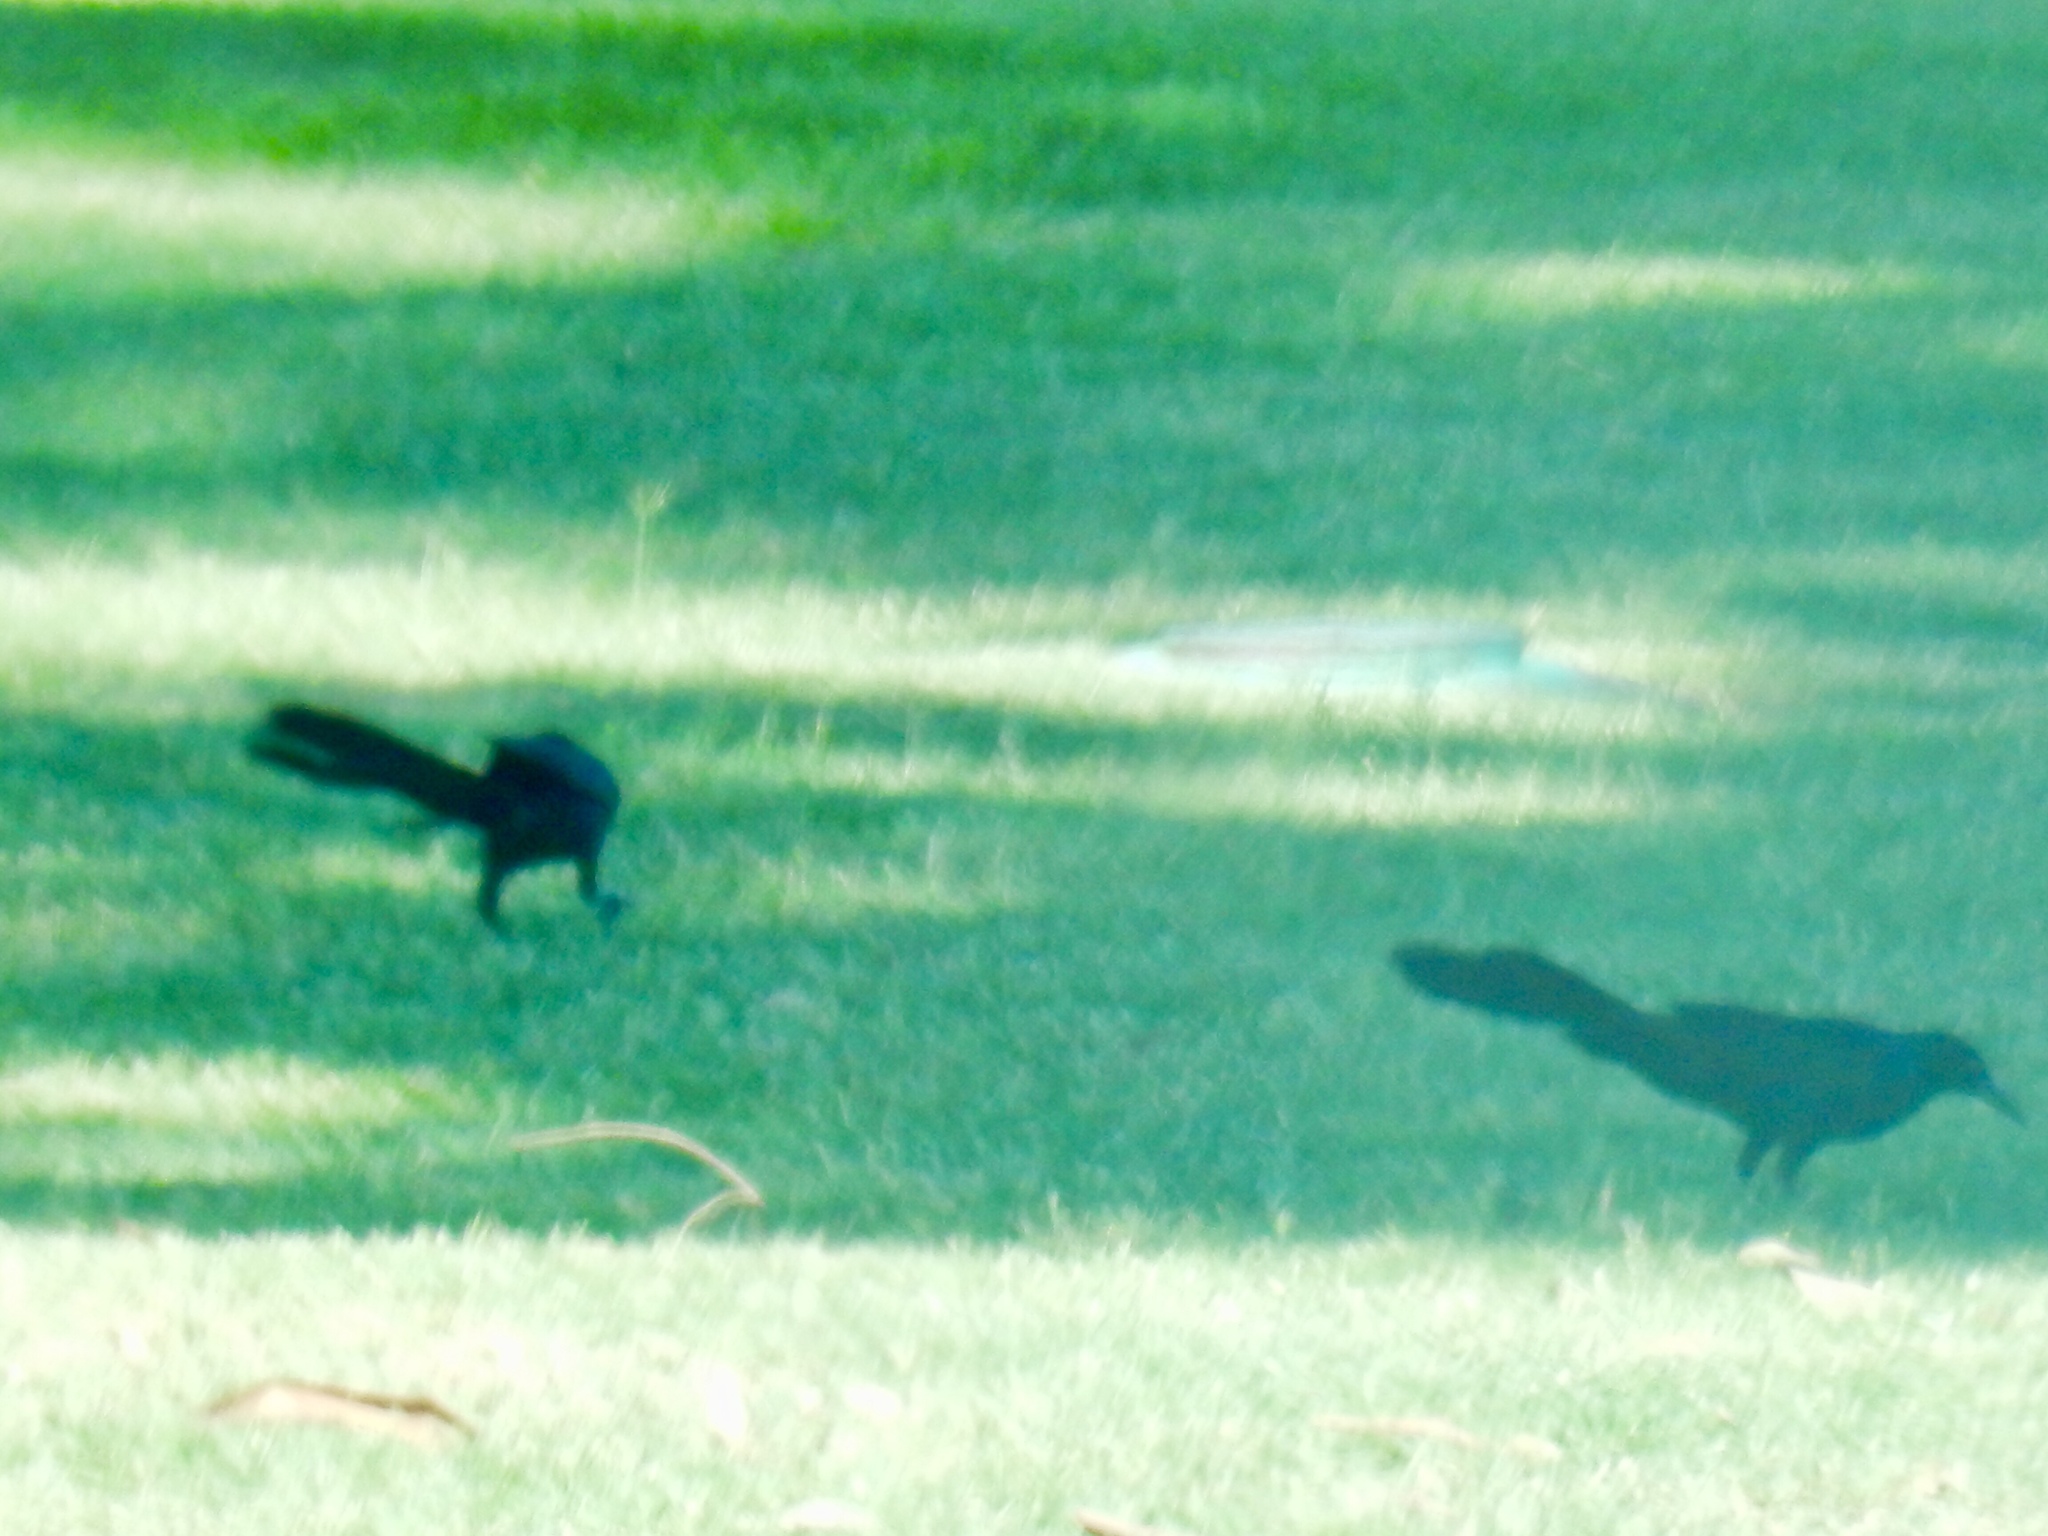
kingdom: Animalia
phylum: Chordata
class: Aves
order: Passeriformes
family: Icteridae
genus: Quiscalus
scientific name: Quiscalus mexicanus
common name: Great-tailed grackle
